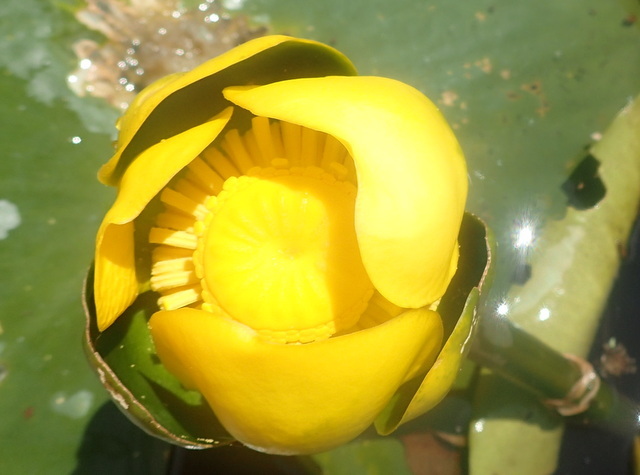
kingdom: Plantae
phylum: Tracheophyta
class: Magnoliopsida
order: Nymphaeales
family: Nymphaeaceae
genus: Nuphar
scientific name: Nuphar advena
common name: Spatter-dock
